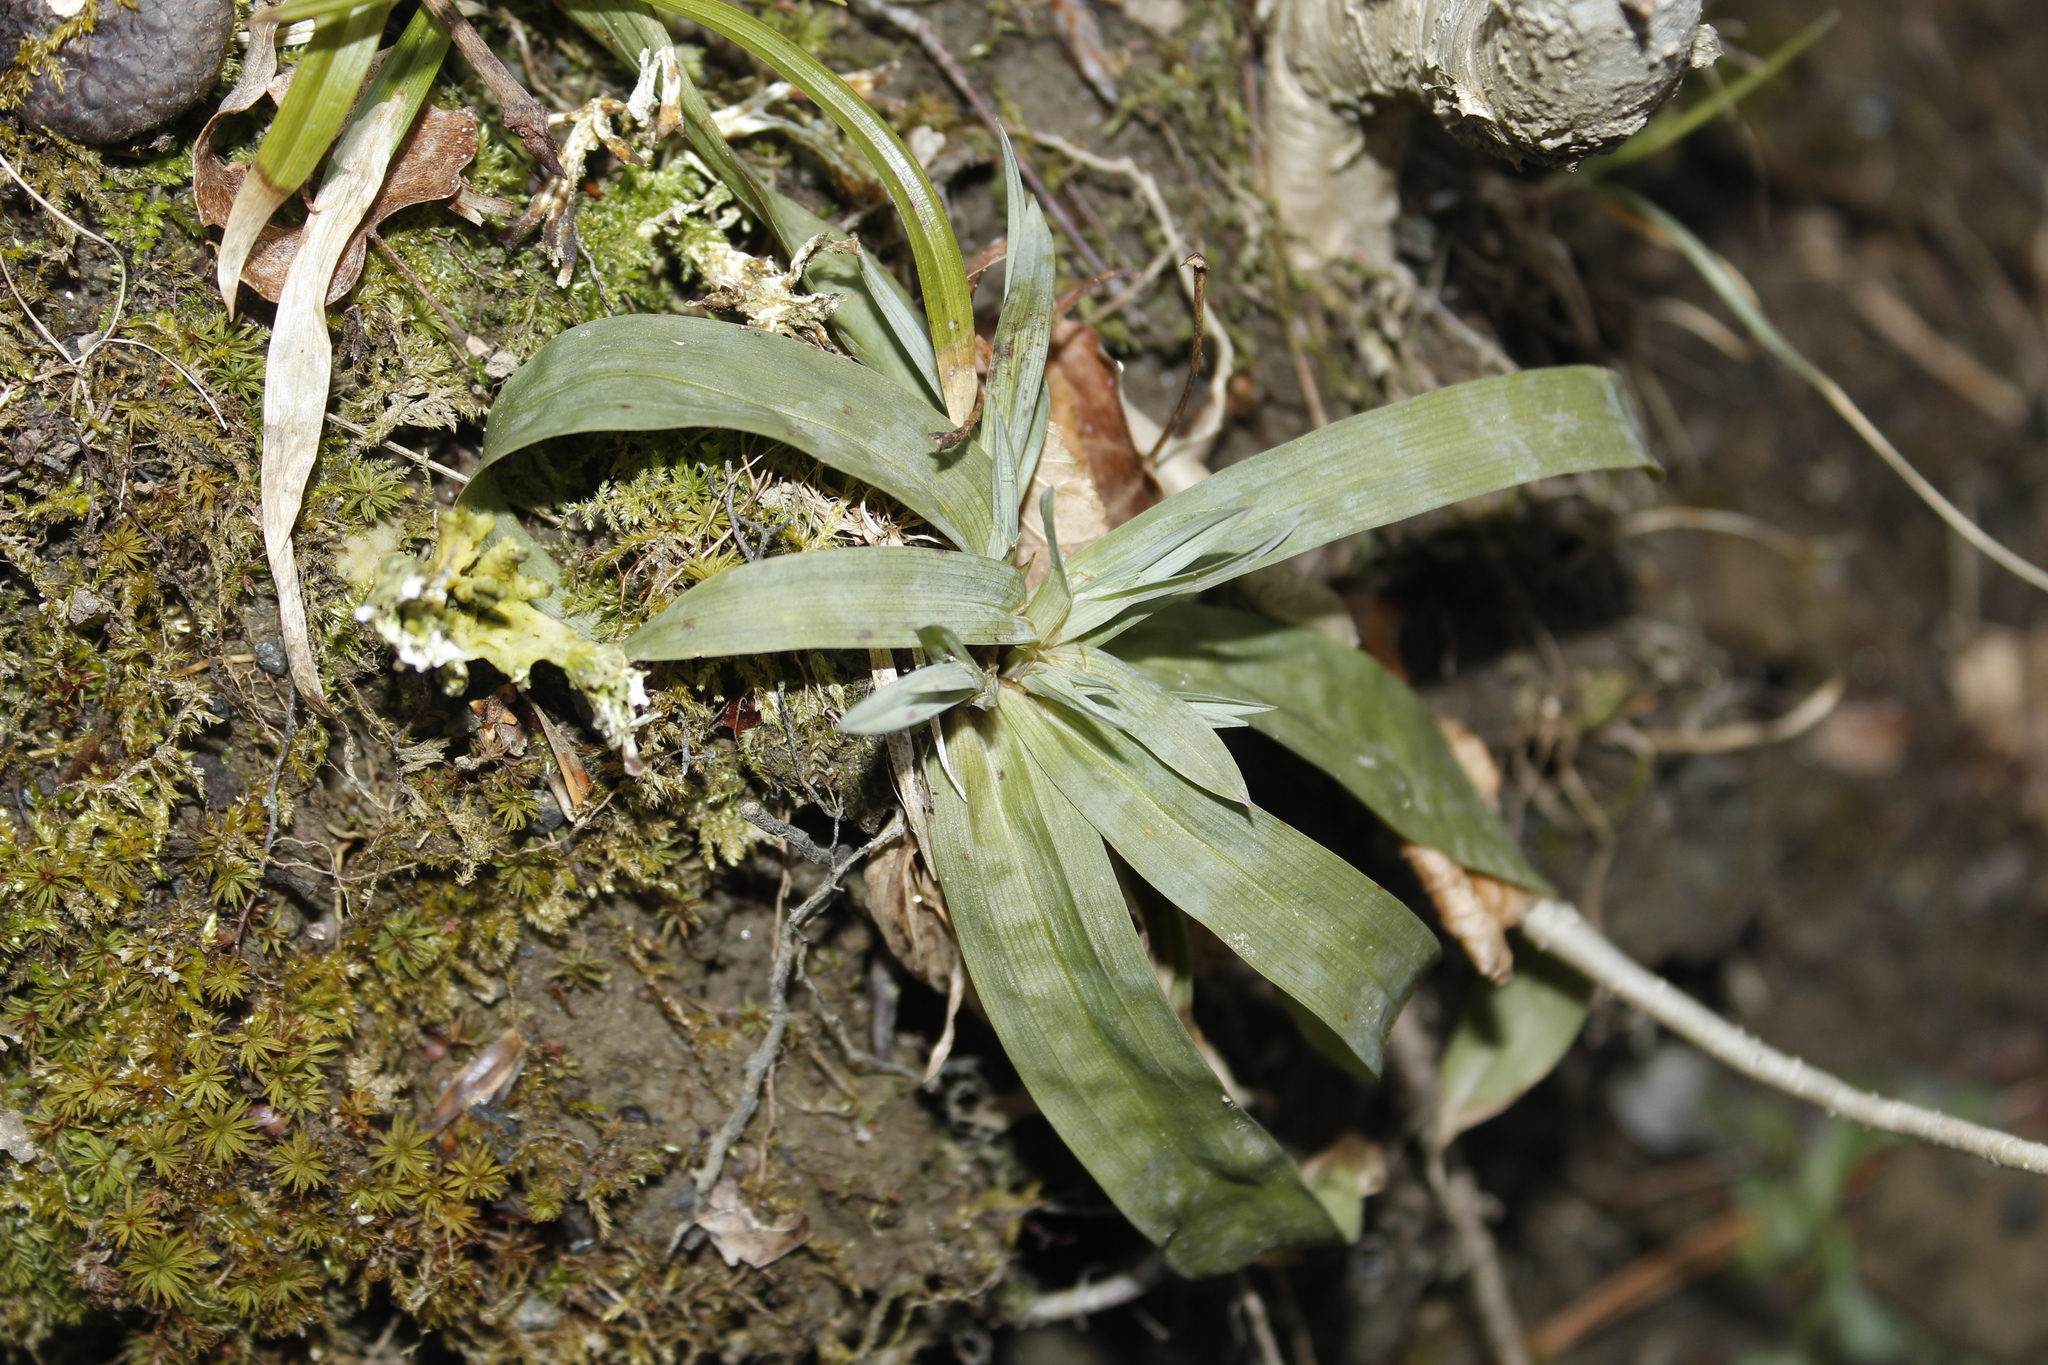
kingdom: Plantae
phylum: Tracheophyta
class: Liliopsida
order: Poales
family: Cyperaceae
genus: Carex
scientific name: Carex platyphylla
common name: Broad-leaved sedge
